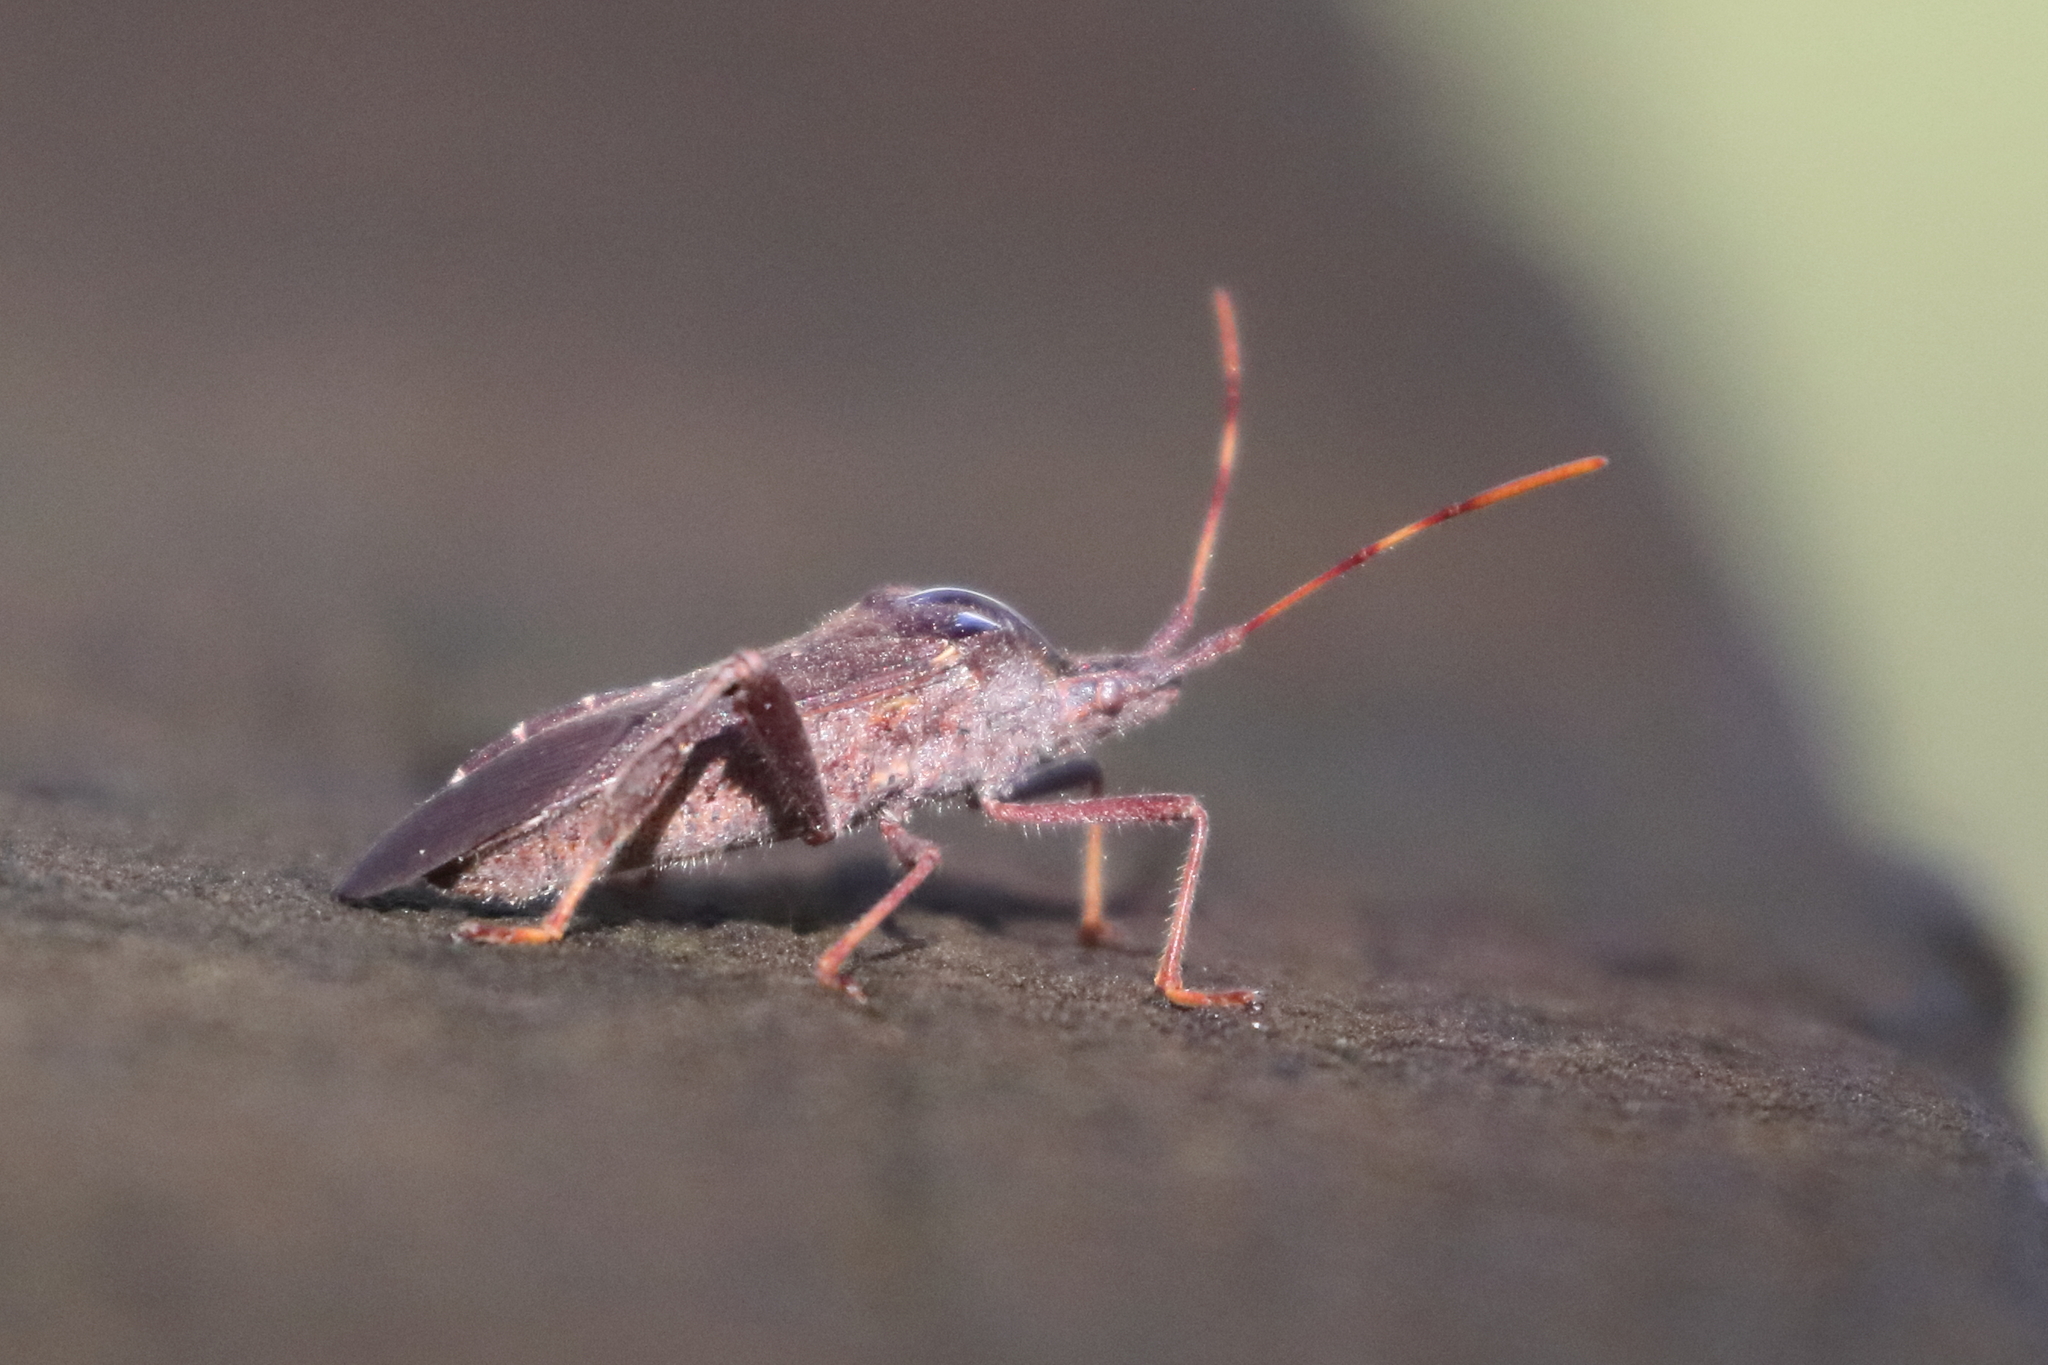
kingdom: Animalia
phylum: Arthropoda
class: Insecta
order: Hemiptera
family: Coreidae
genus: Leptoglossus
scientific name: Leptoglossus oppositus
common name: Northern leaf-footed bug
